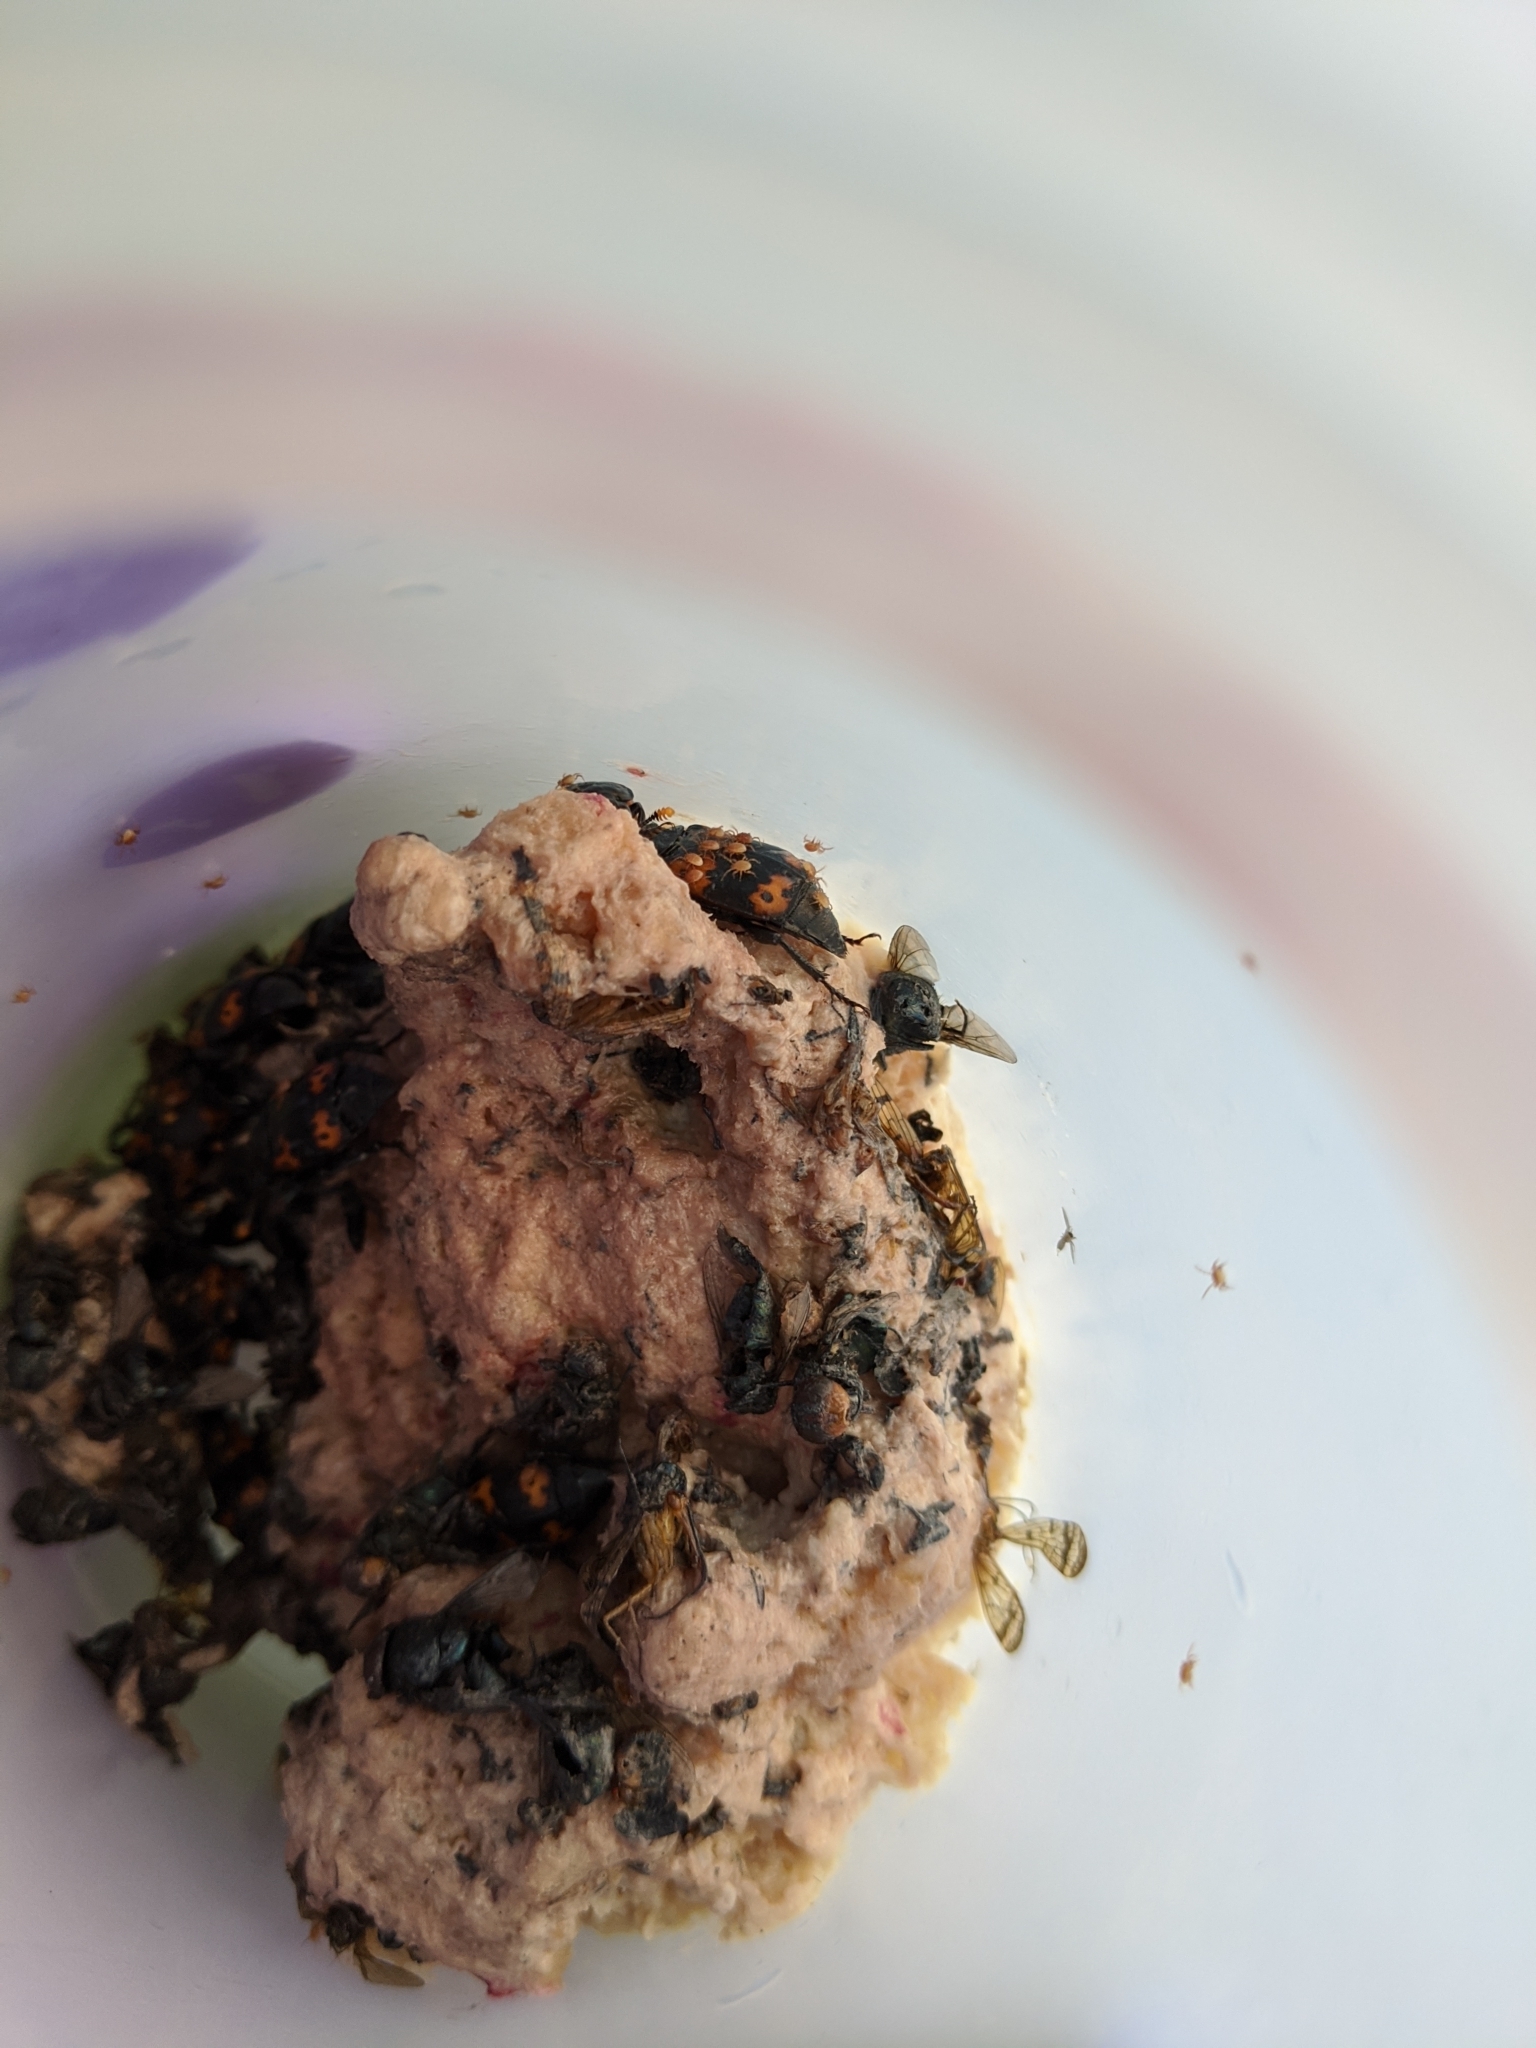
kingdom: Animalia
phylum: Arthropoda
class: Insecta
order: Coleoptera
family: Staphylinidae
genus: Nicrophorus
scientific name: Nicrophorus nepalensis
